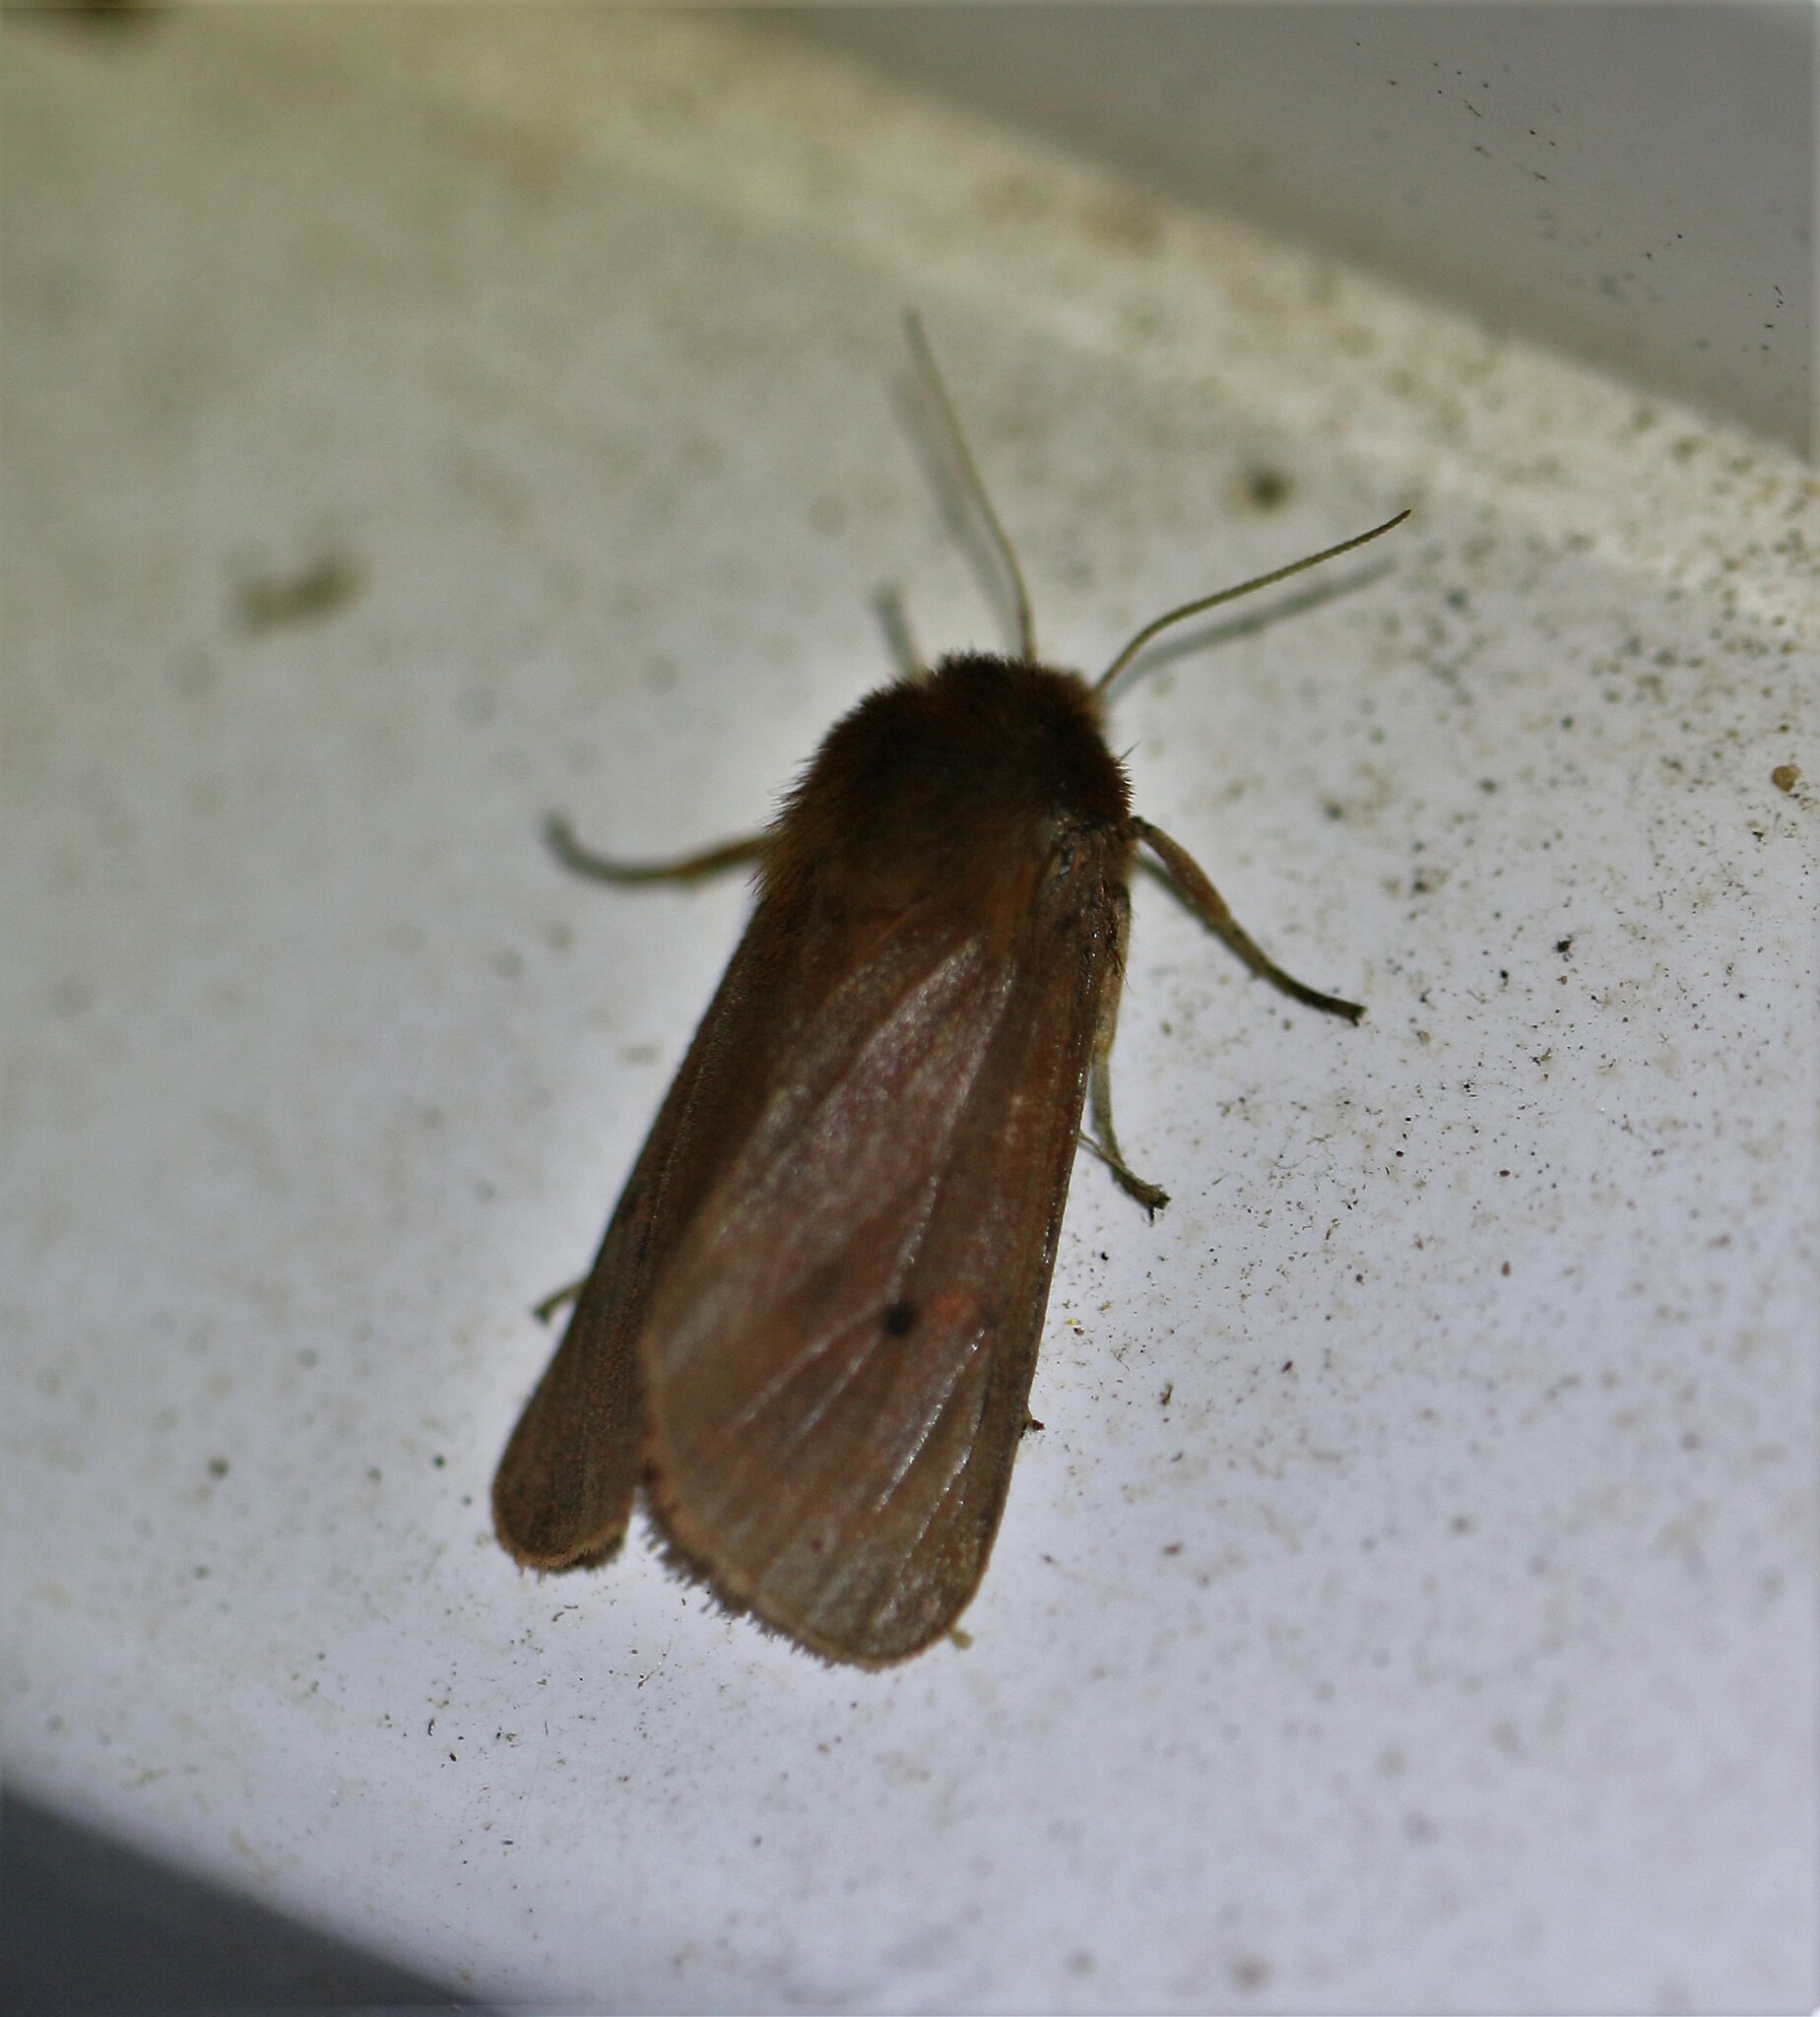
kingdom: Animalia
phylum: Arthropoda
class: Insecta
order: Lepidoptera
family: Erebidae
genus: Phragmatobia
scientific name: Phragmatobia fuliginosa
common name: Ruby tiger
